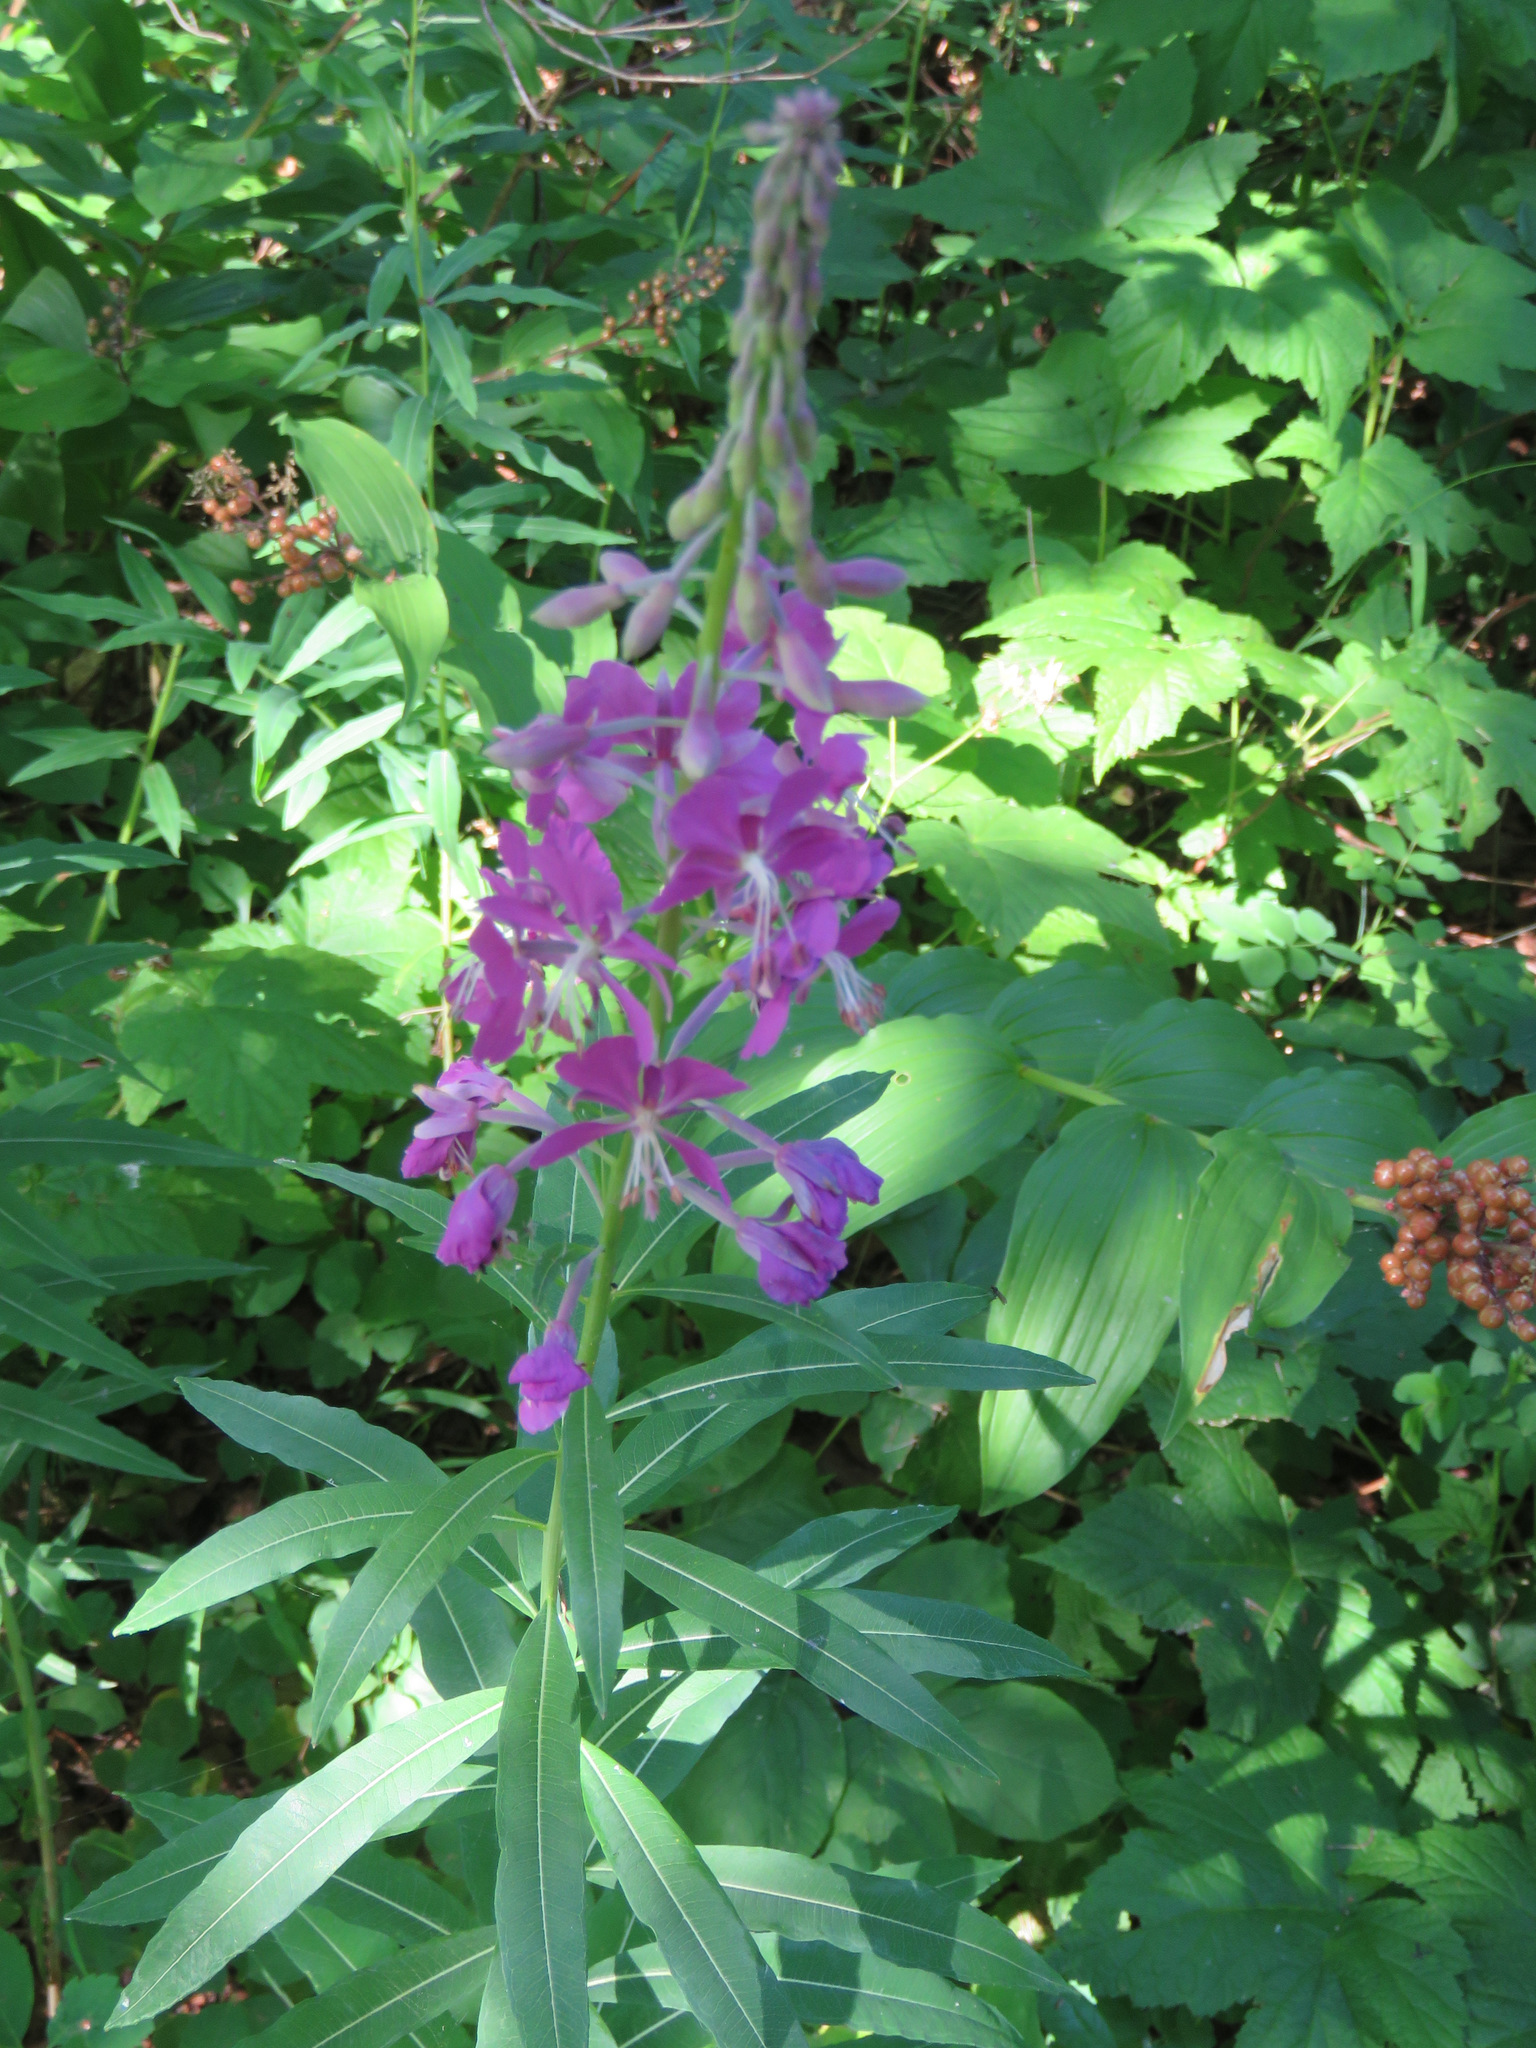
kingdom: Plantae
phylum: Tracheophyta
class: Magnoliopsida
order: Myrtales
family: Onagraceae
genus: Chamaenerion
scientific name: Chamaenerion angustifolium
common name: Fireweed
